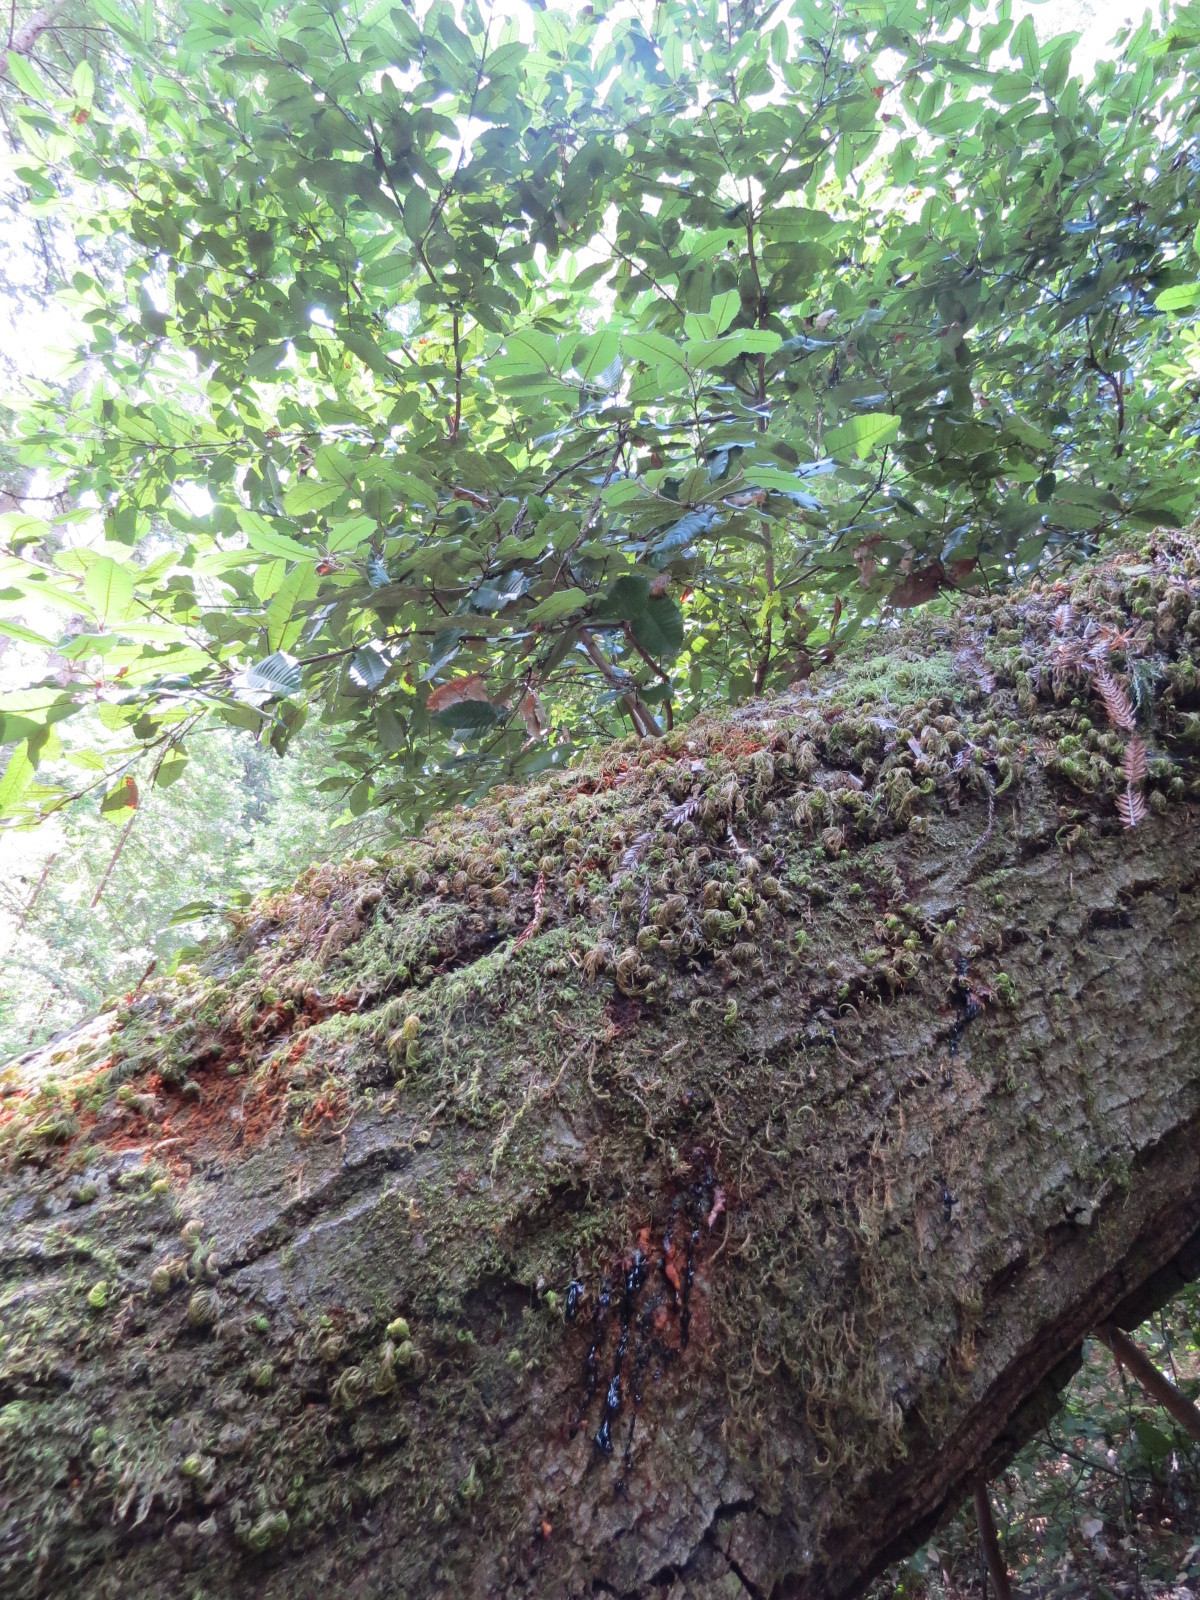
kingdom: Chromista
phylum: Oomycota
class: Peronosporea
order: Peronosporales
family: Peronosporaceae
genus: Phytophthora
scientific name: Phytophthora ramorum
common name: Sudden oak death
